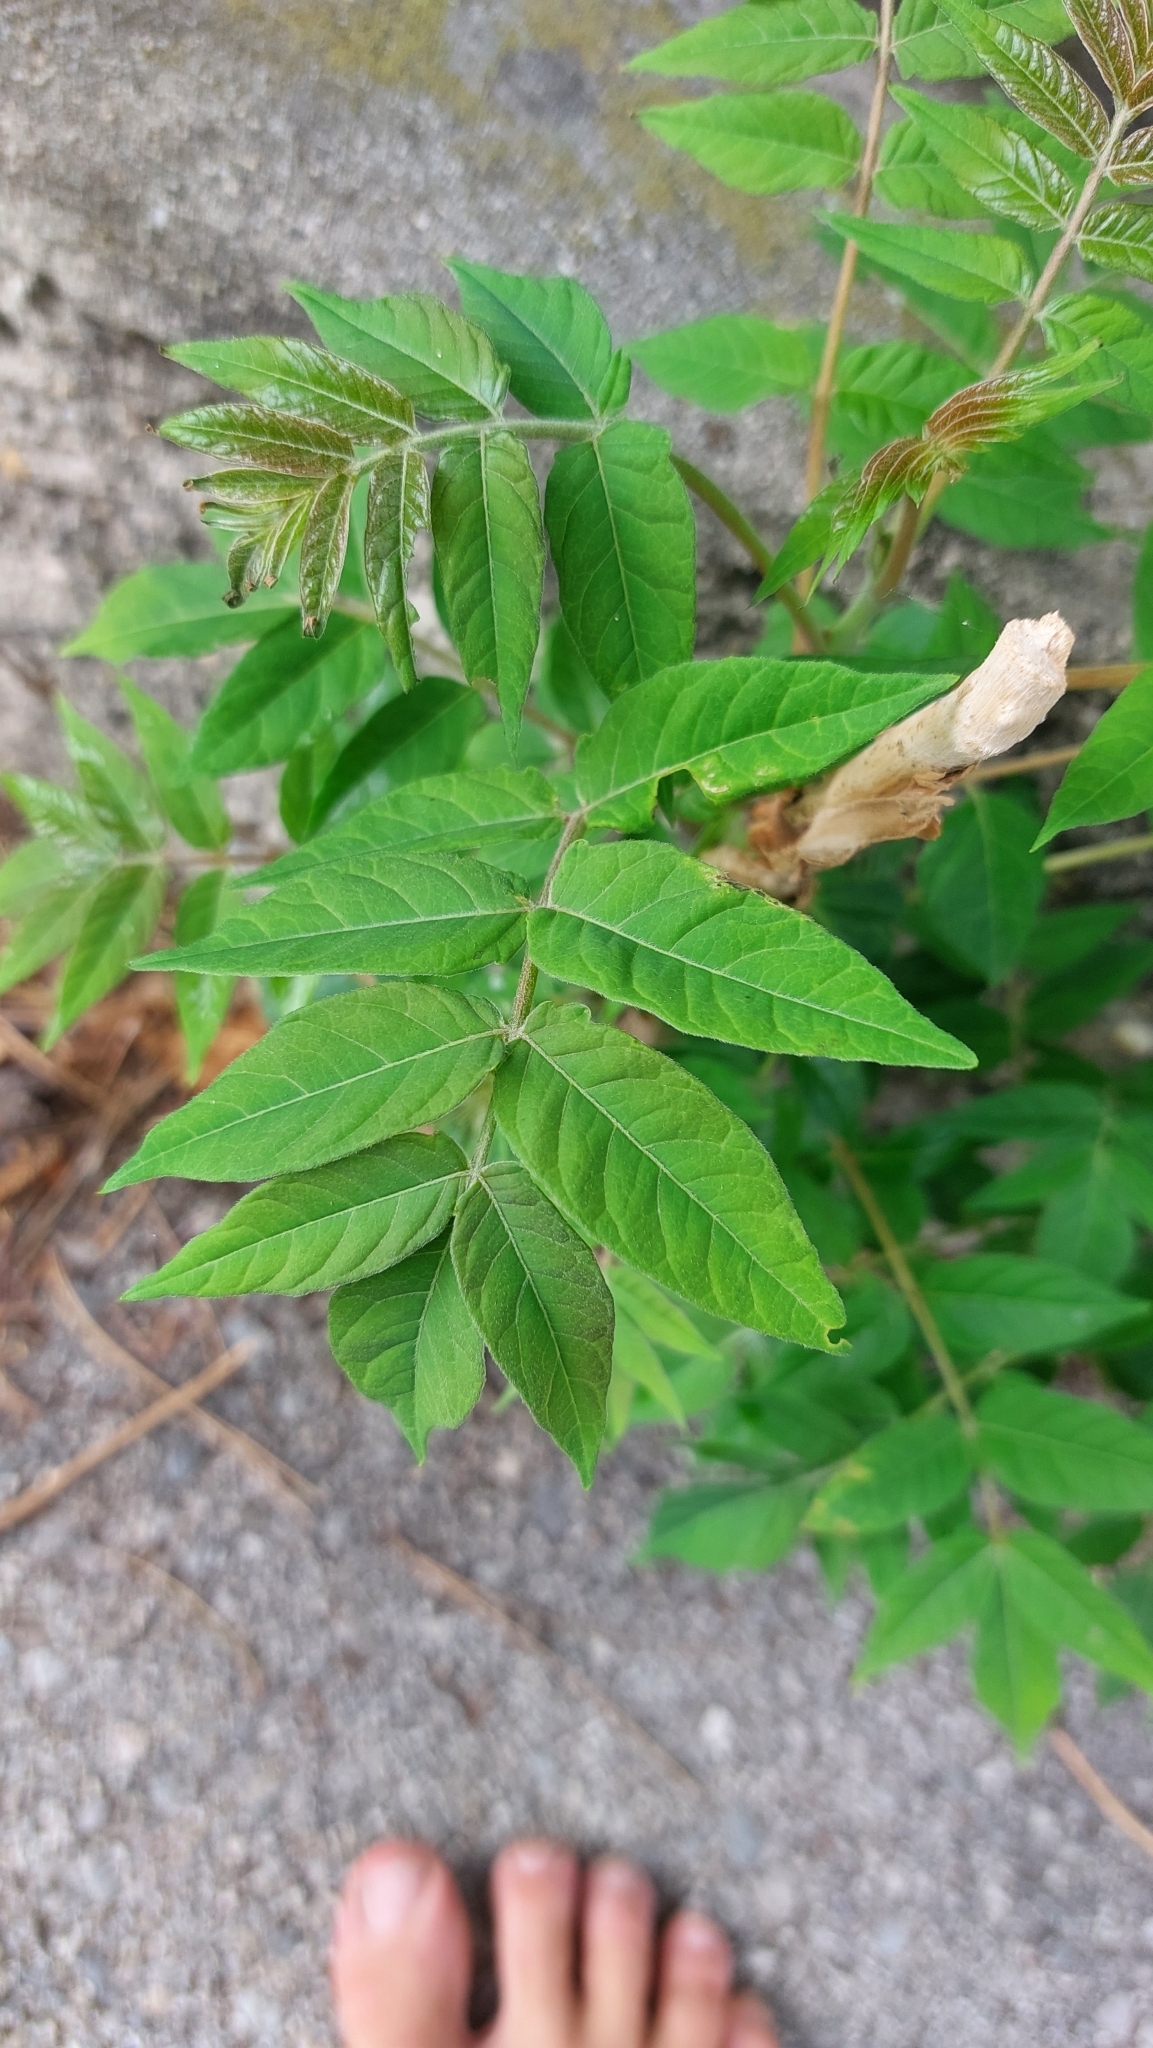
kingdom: Plantae
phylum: Tracheophyta
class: Magnoliopsida
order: Sapindales
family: Simaroubaceae
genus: Ailanthus
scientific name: Ailanthus altissima
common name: Tree-of-heaven
